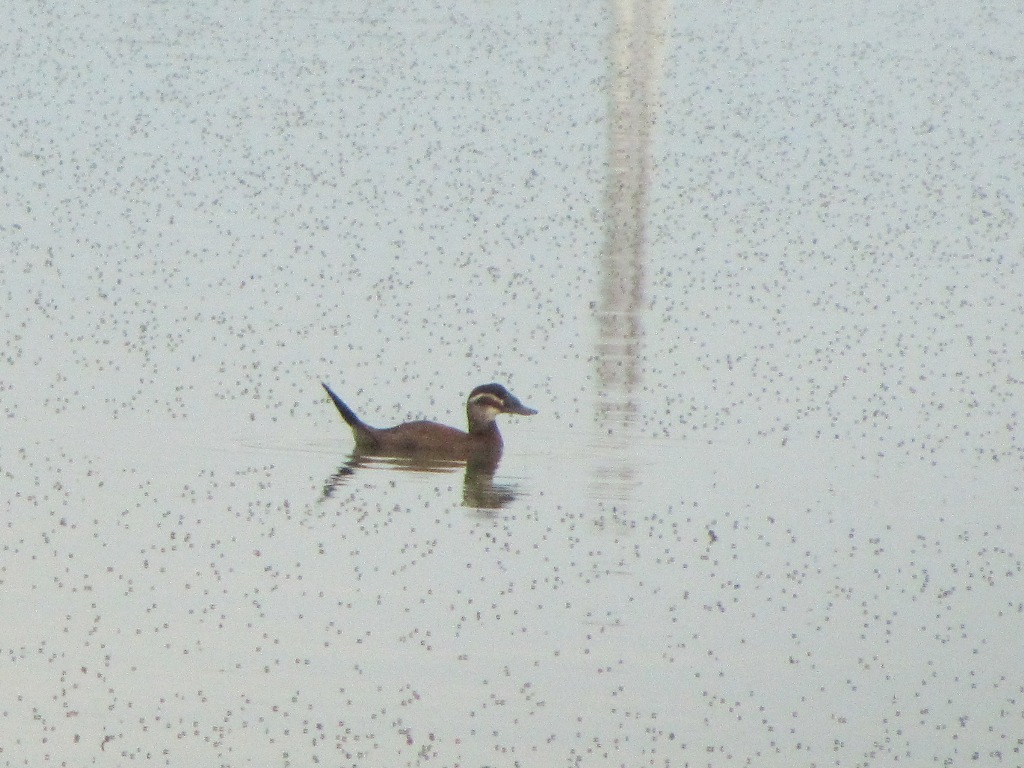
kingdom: Animalia
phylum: Chordata
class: Aves
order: Anseriformes
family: Anatidae
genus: Oxyura
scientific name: Oxyura leucocephala
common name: White-headed duck
